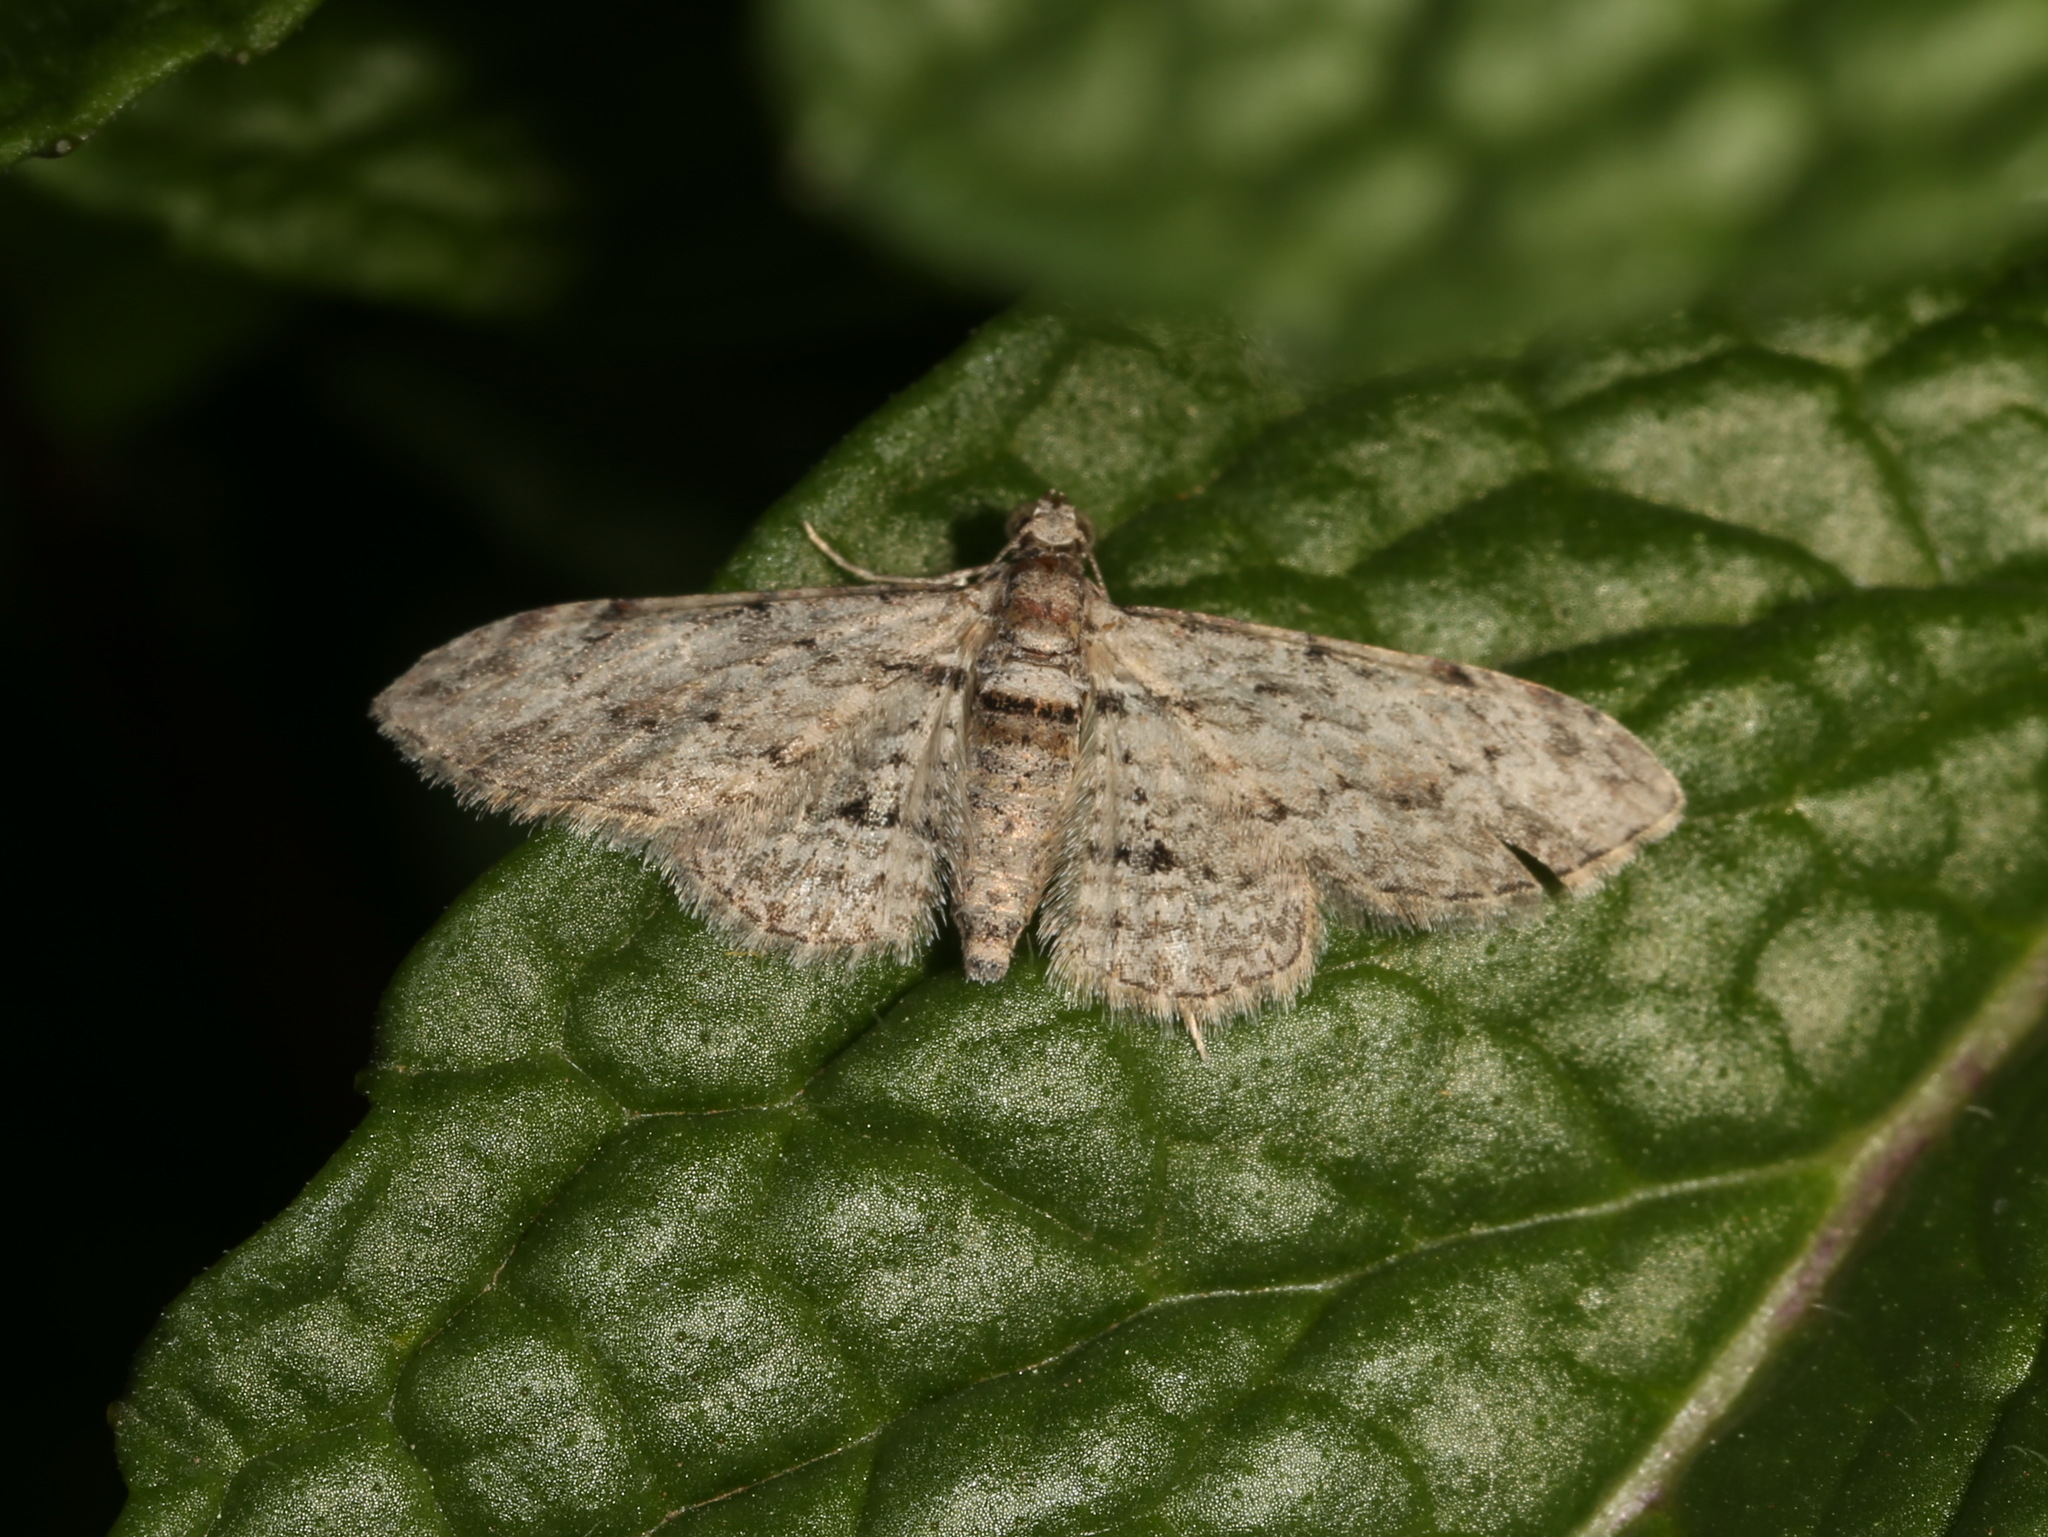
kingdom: Animalia
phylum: Arthropoda
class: Insecta
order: Lepidoptera
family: Geometridae
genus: Chloroclystis
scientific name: Chloroclystis insigillata
